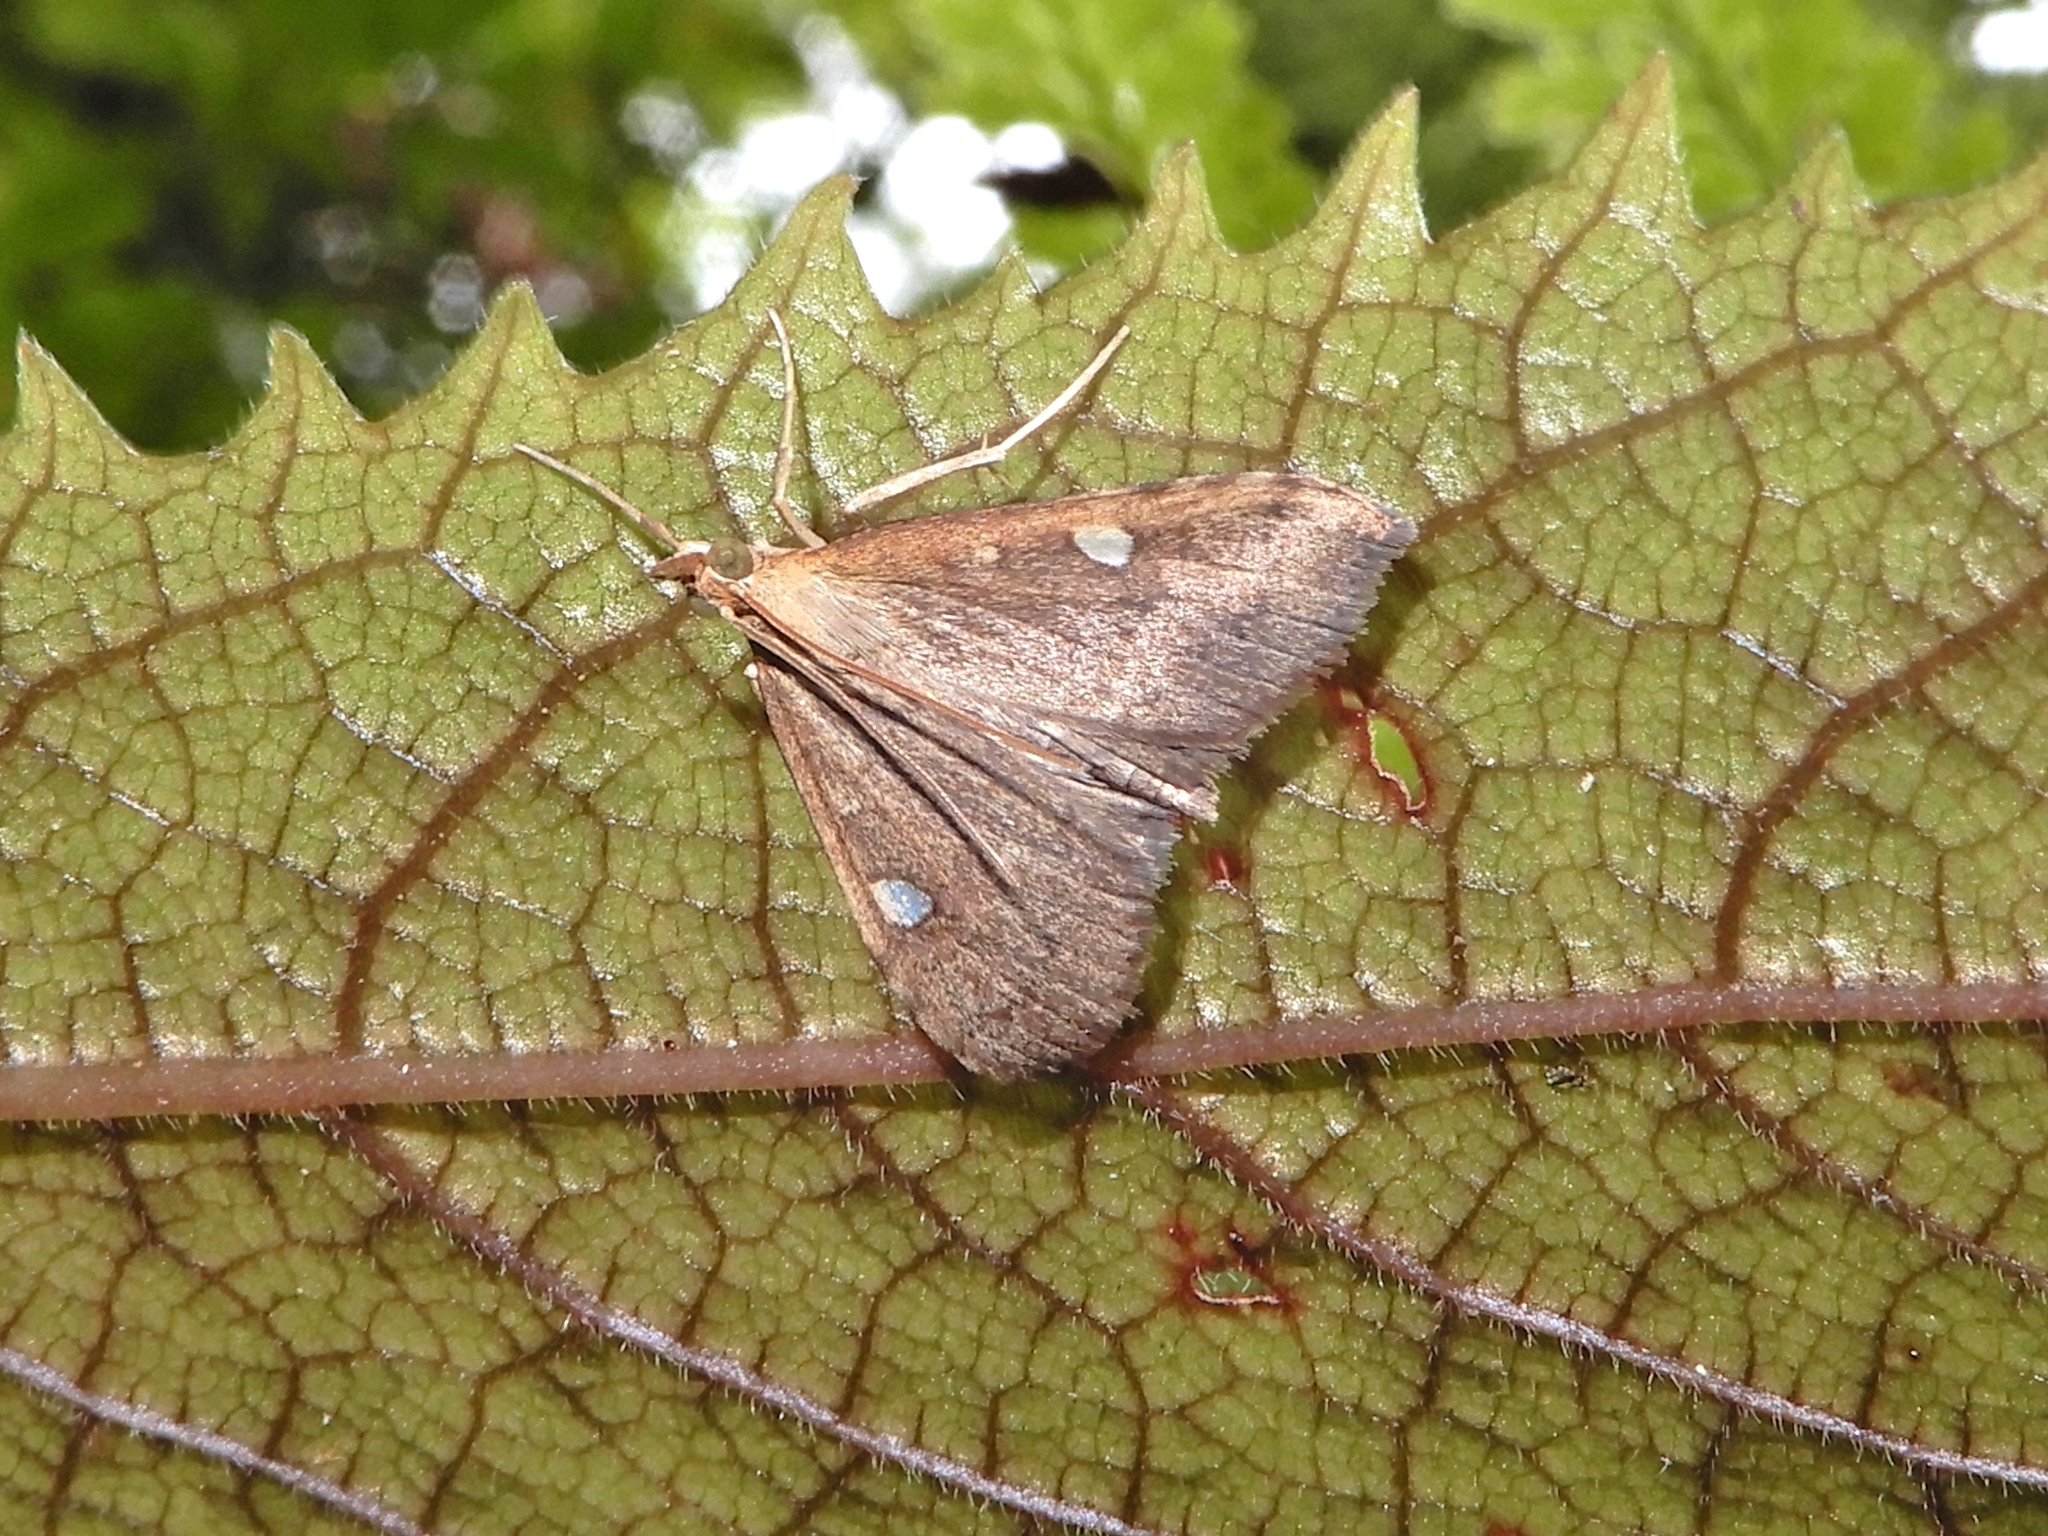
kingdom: Animalia
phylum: Arthropoda
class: Insecta
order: Lepidoptera
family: Crambidae
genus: Udea
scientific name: Udea Mnesictena marmarina
